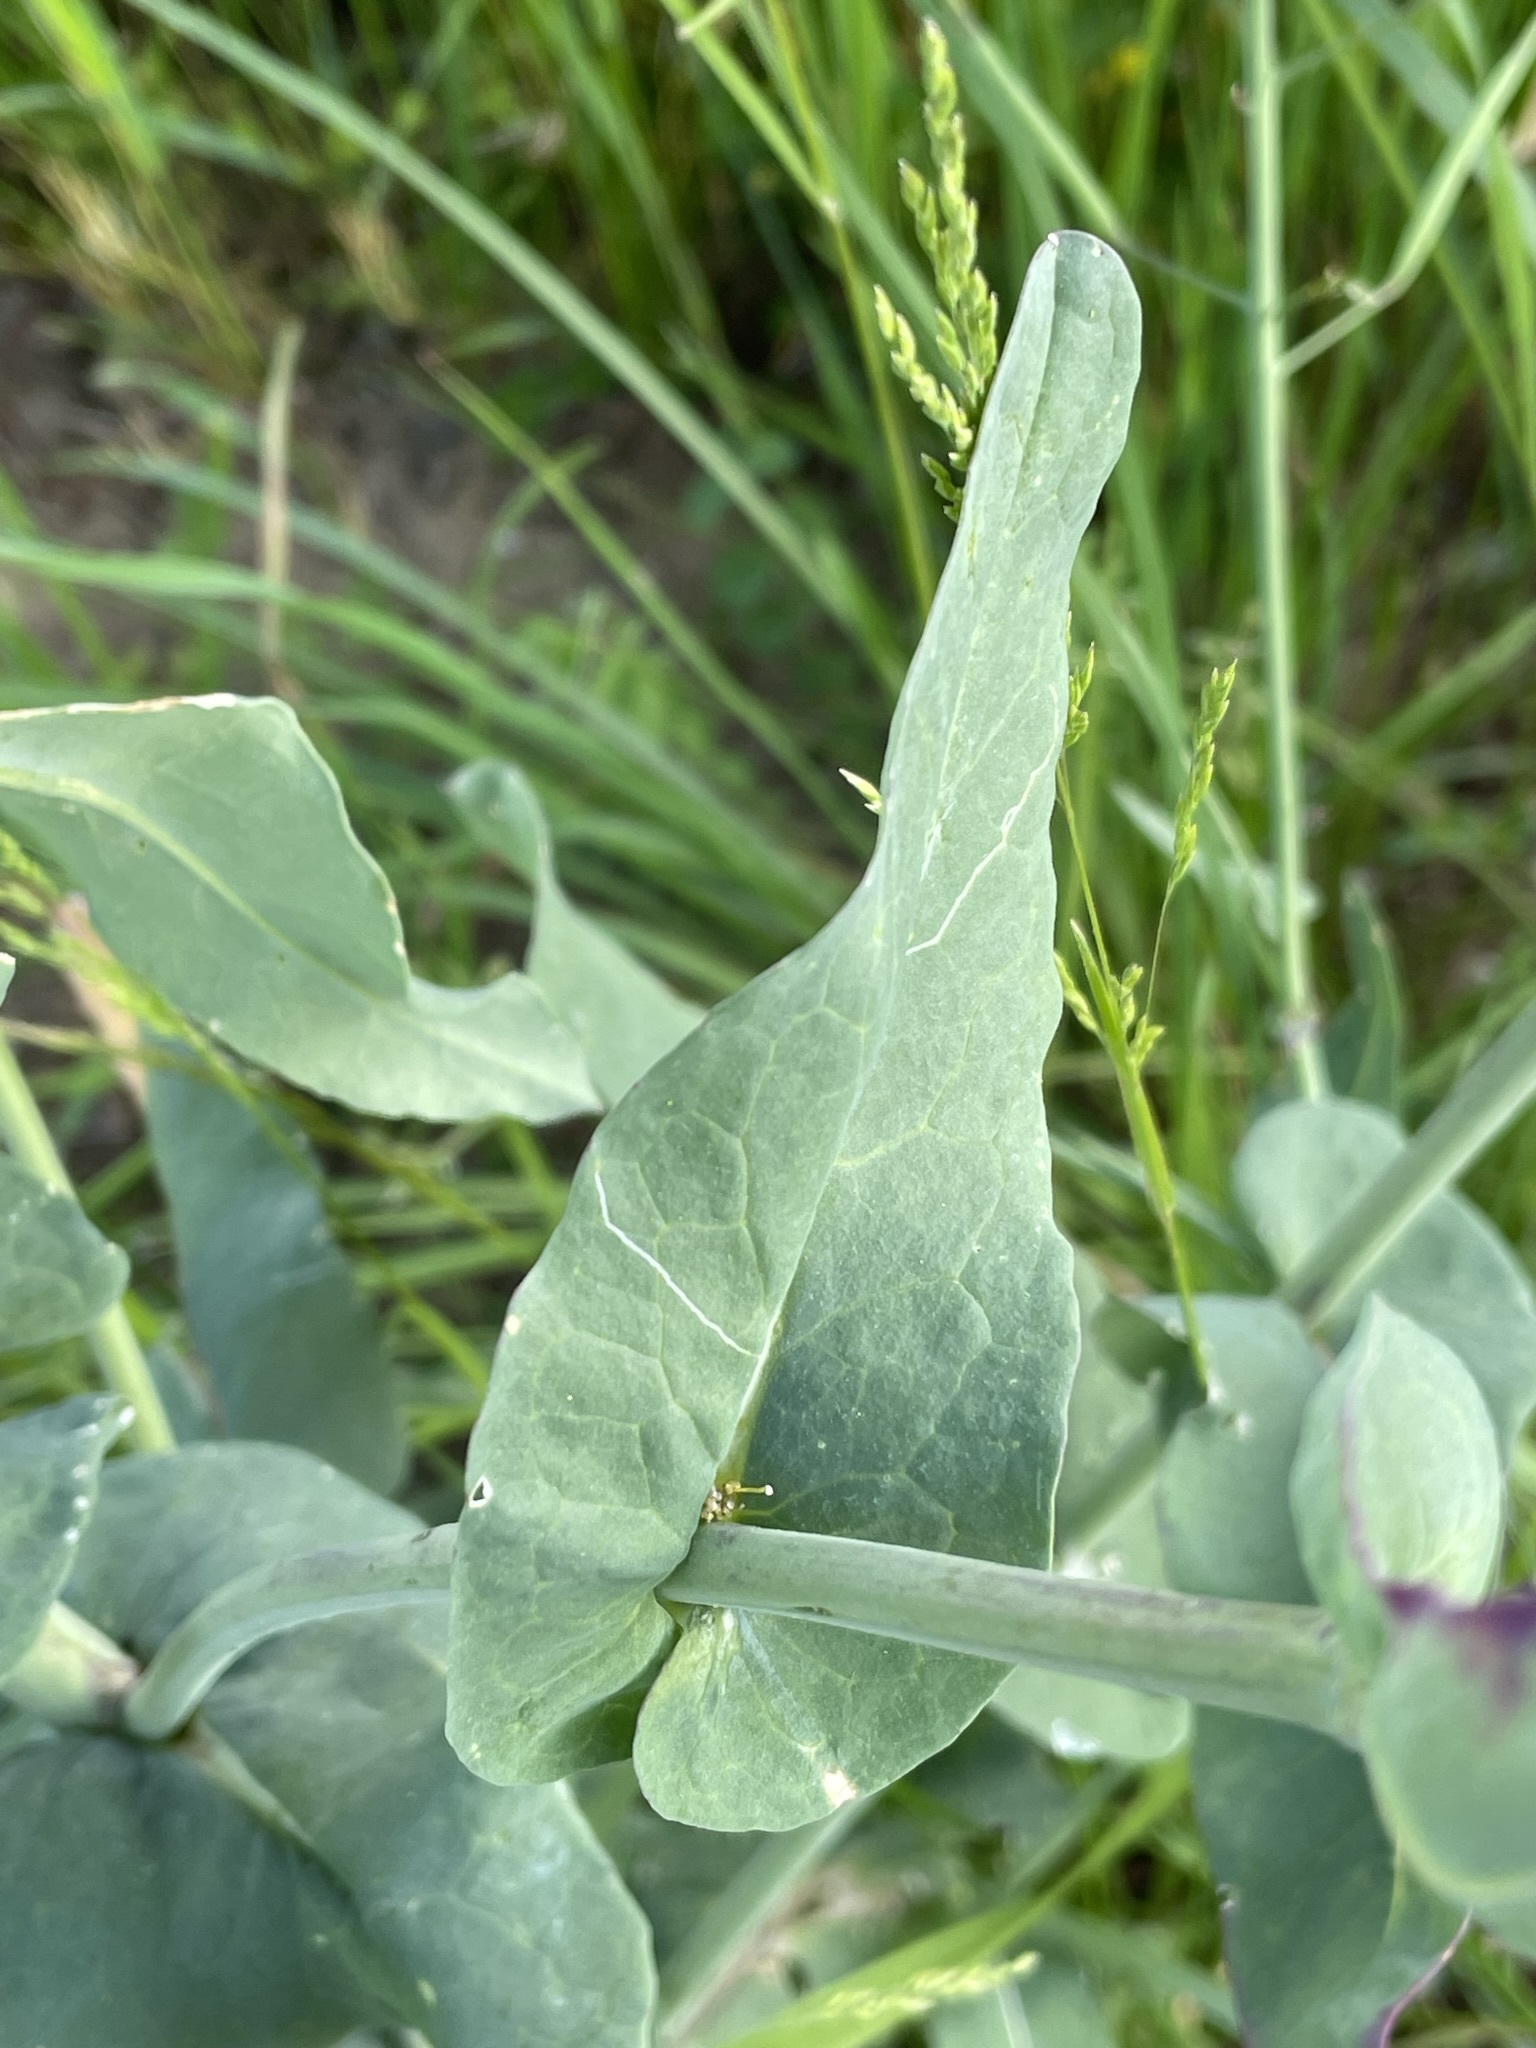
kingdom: Plantae
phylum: Tracheophyta
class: Magnoliopsida
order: Brassicales
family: Brassicaceae
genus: Brassica
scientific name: Brassica rapa
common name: Field mustard
